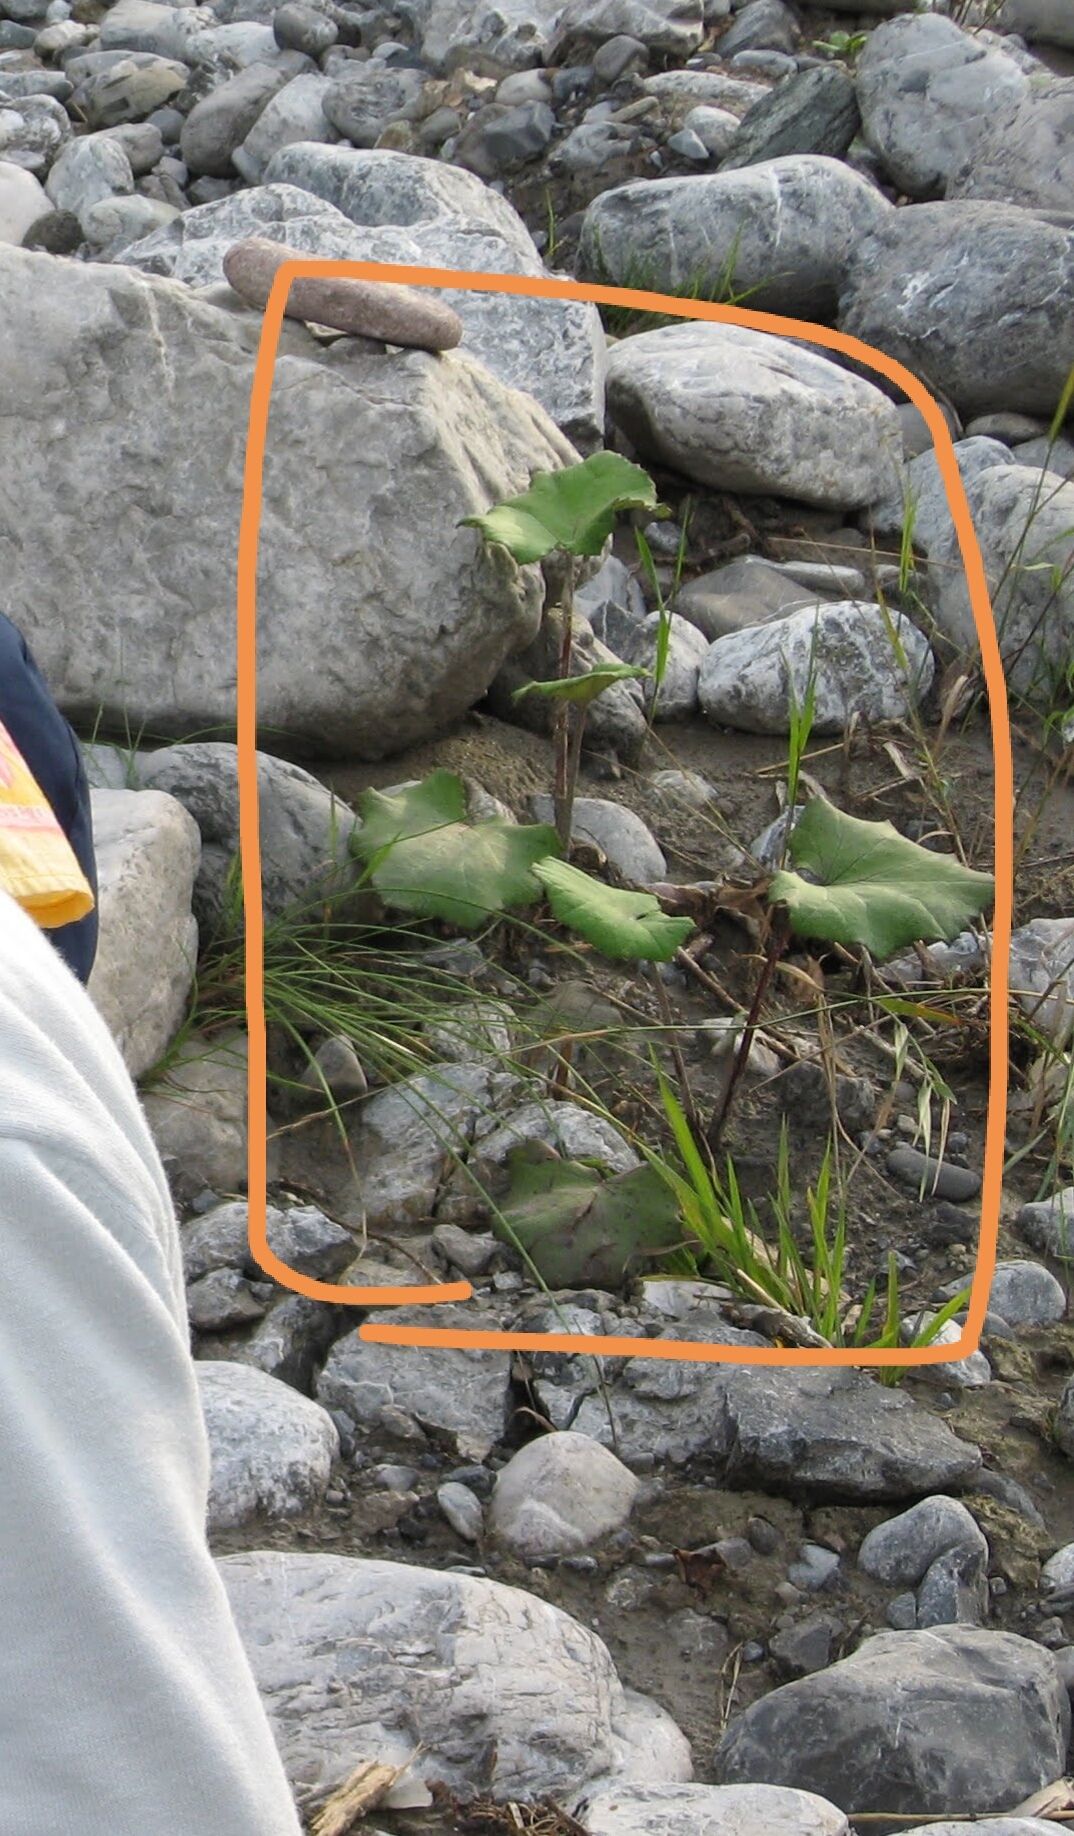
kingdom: Plantae
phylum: Tracheophyta
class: Magnoliopsida
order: Asterales
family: Asteraceae
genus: Tussilago
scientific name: Tussilago farfara
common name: Coltsfoot
